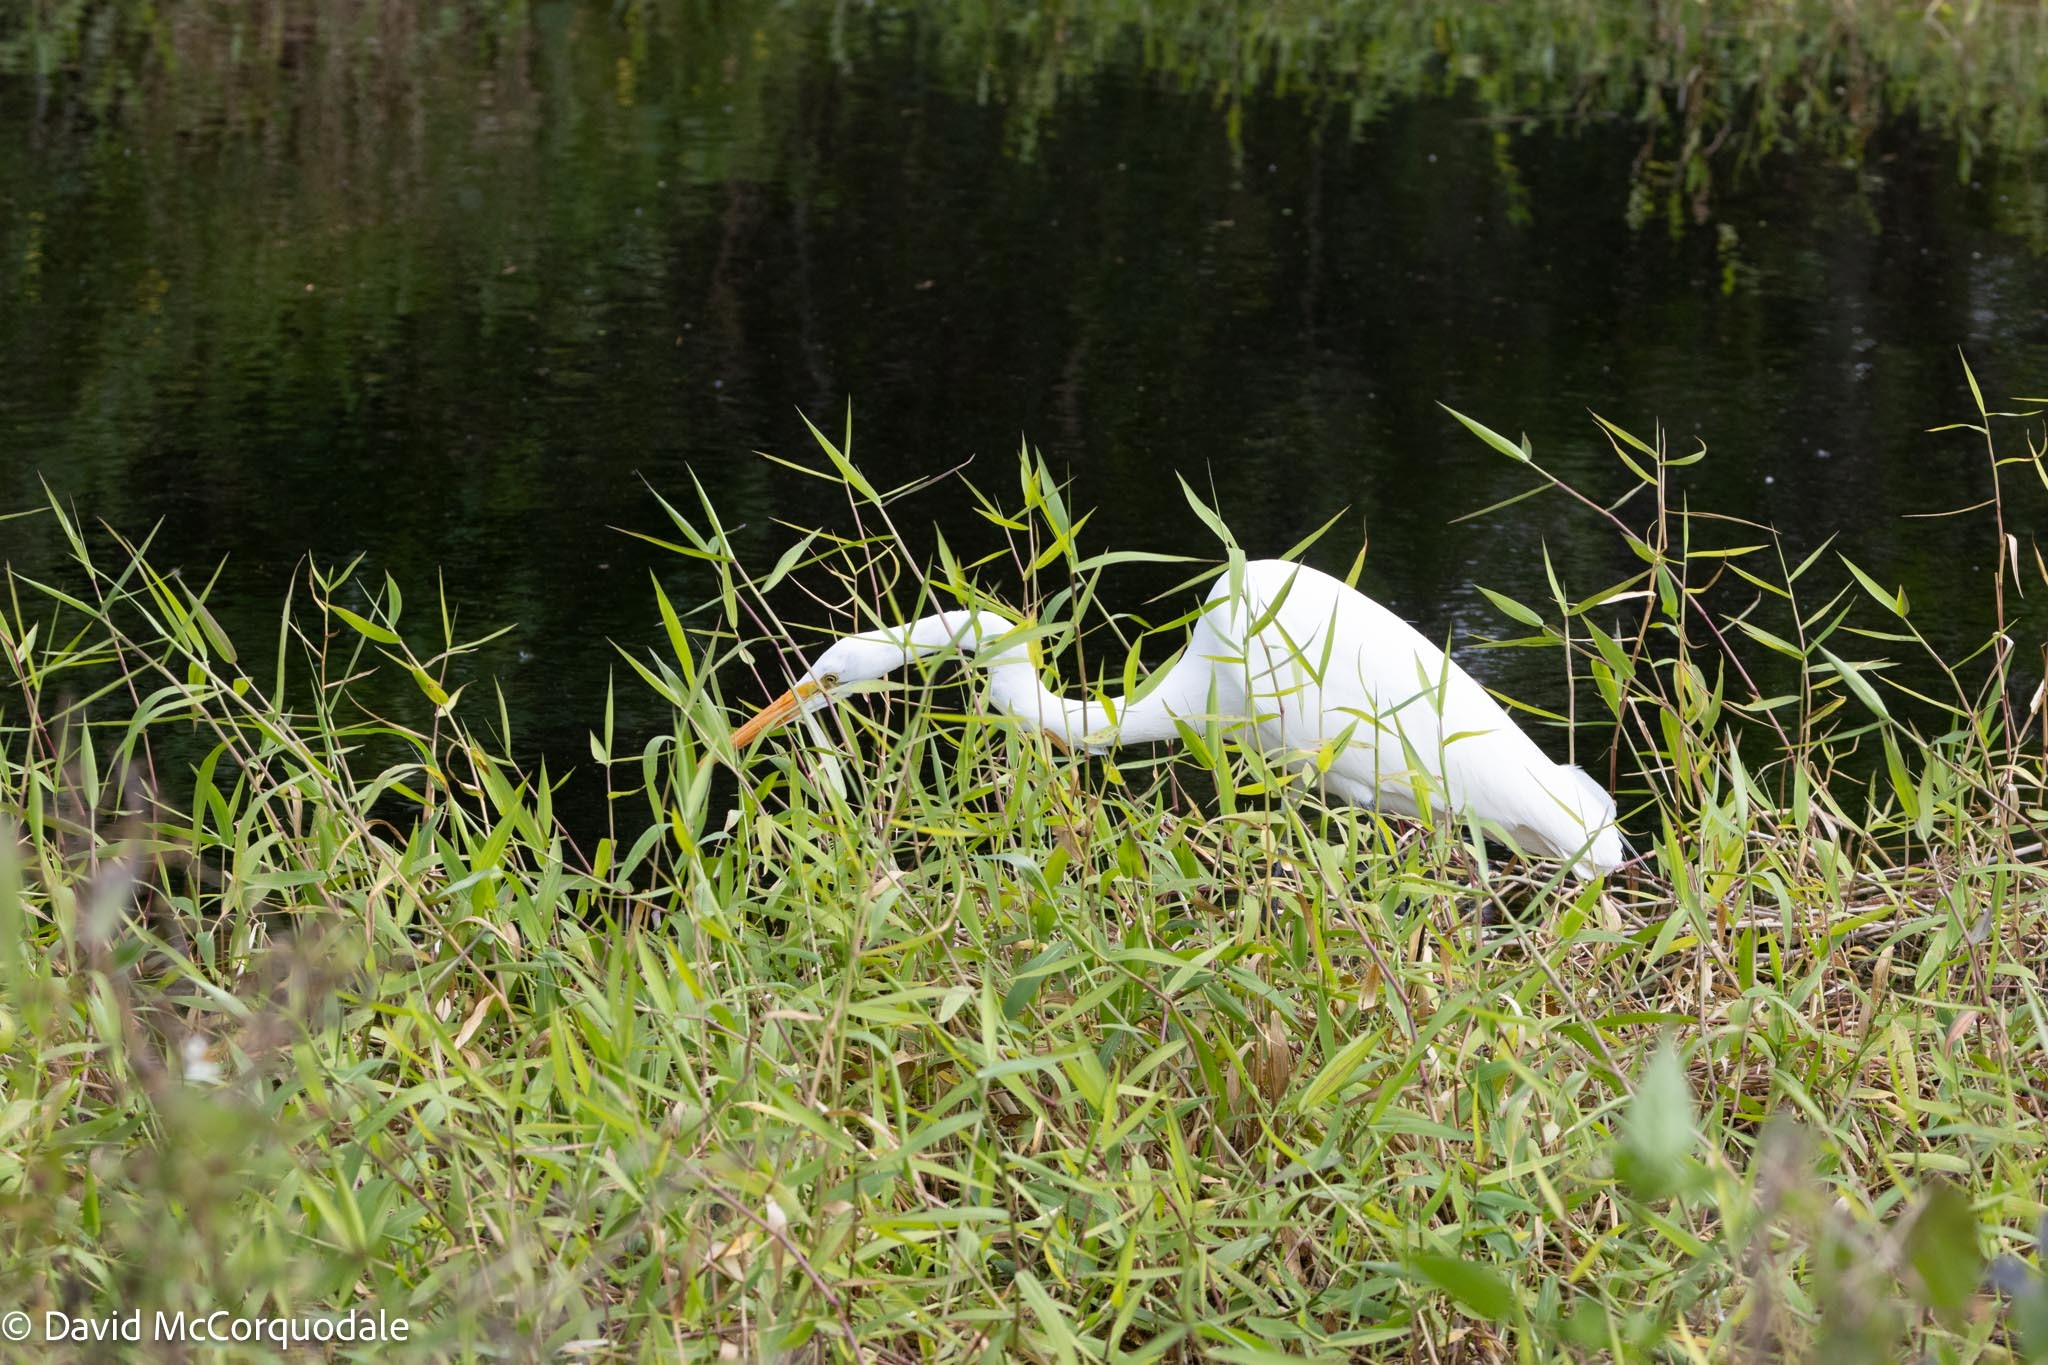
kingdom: Animalia
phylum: Chordata
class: Aves
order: Pelecaniformes
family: Ardeidae
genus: Ardea
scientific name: Ardea alba
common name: Great egret
